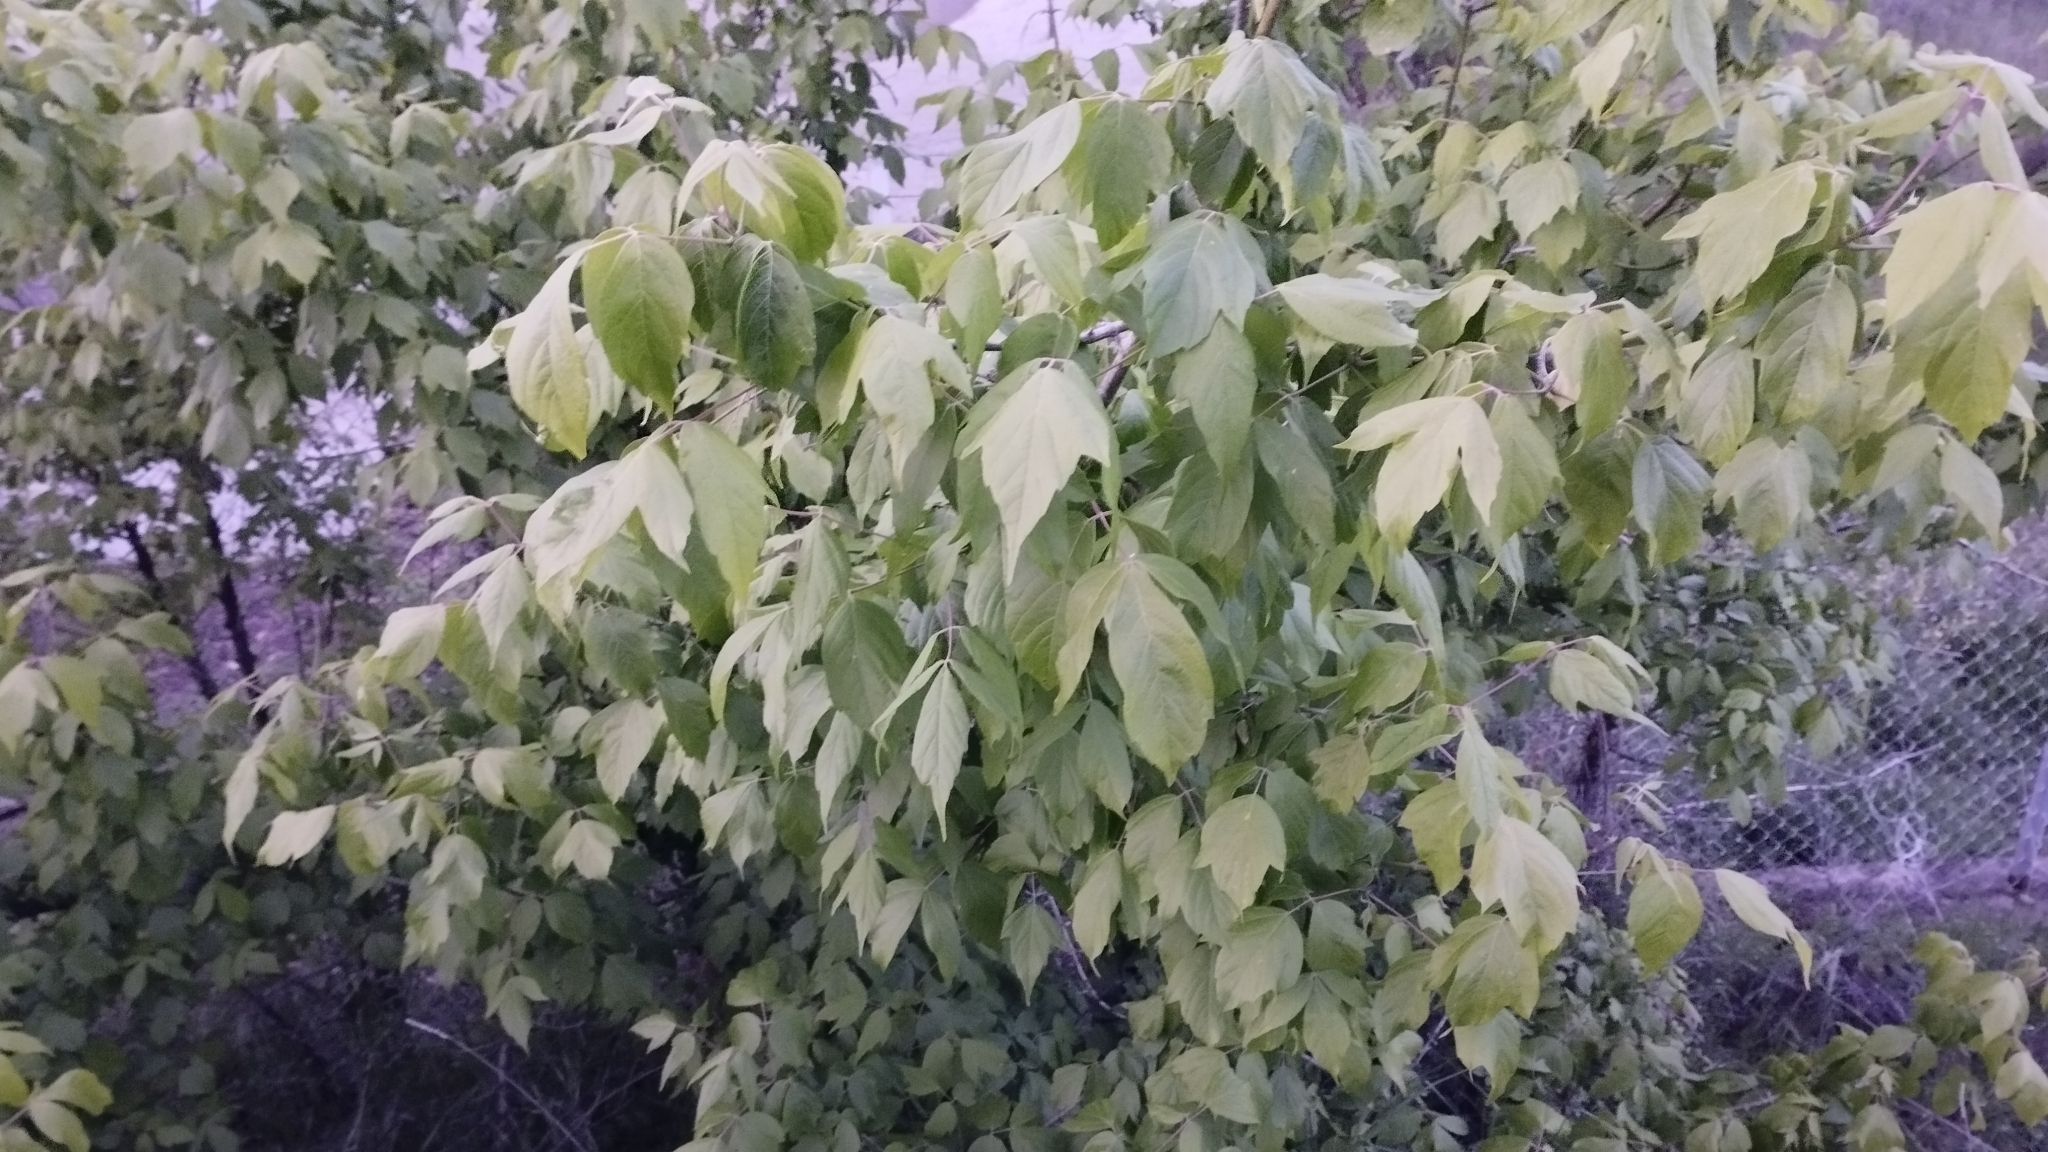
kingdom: Plantae
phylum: Tracheophyta
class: Magnoliopsida
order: Sapindales
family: Sapindaceae
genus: Acer
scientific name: Acer negundo
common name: Ashleaf maple
